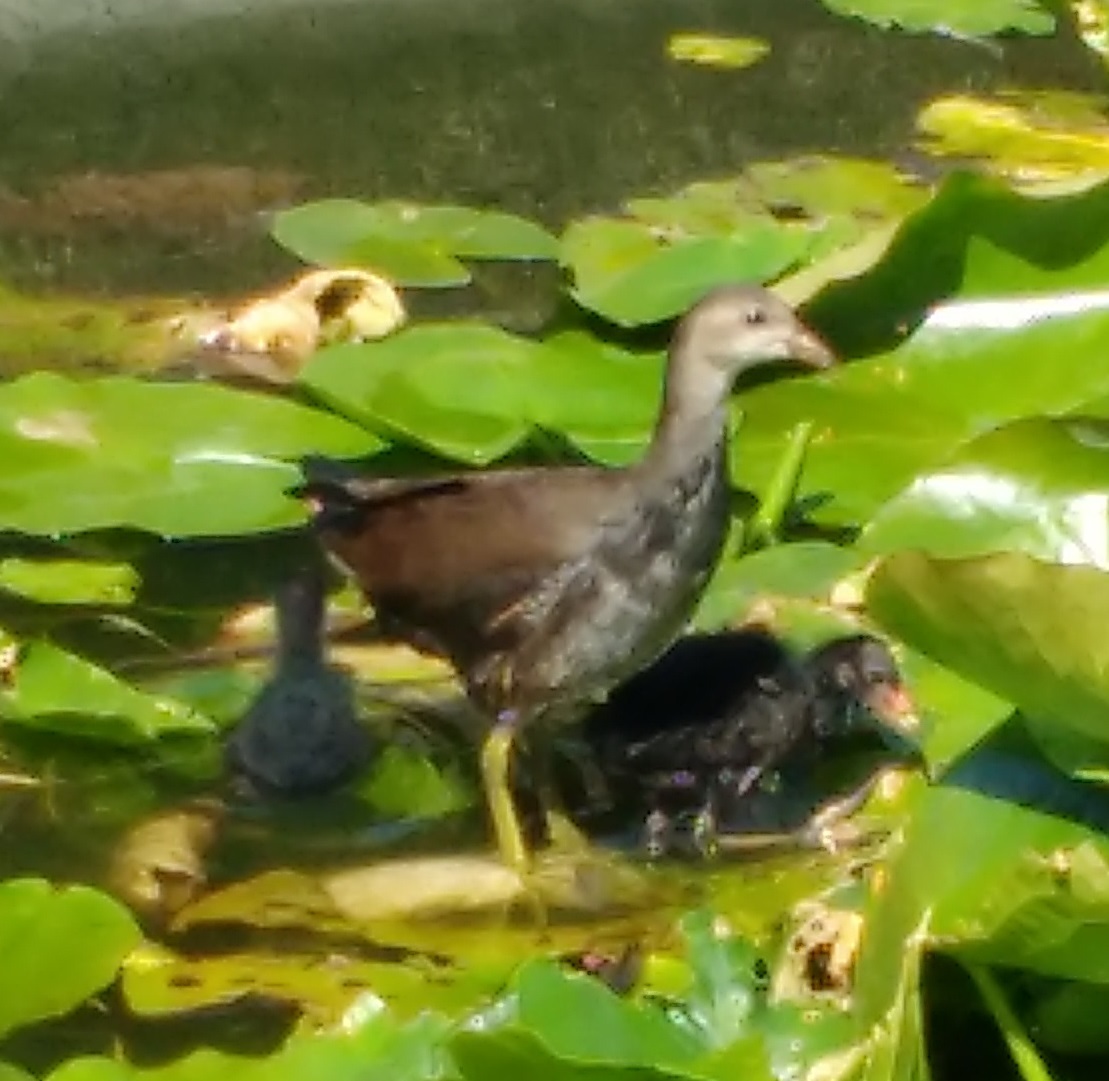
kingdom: Animalia
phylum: Chordata
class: Aves
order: Gruiformes
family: Rallidae
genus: Gallinula
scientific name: Gallinula chloropus
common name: Common moorhen
